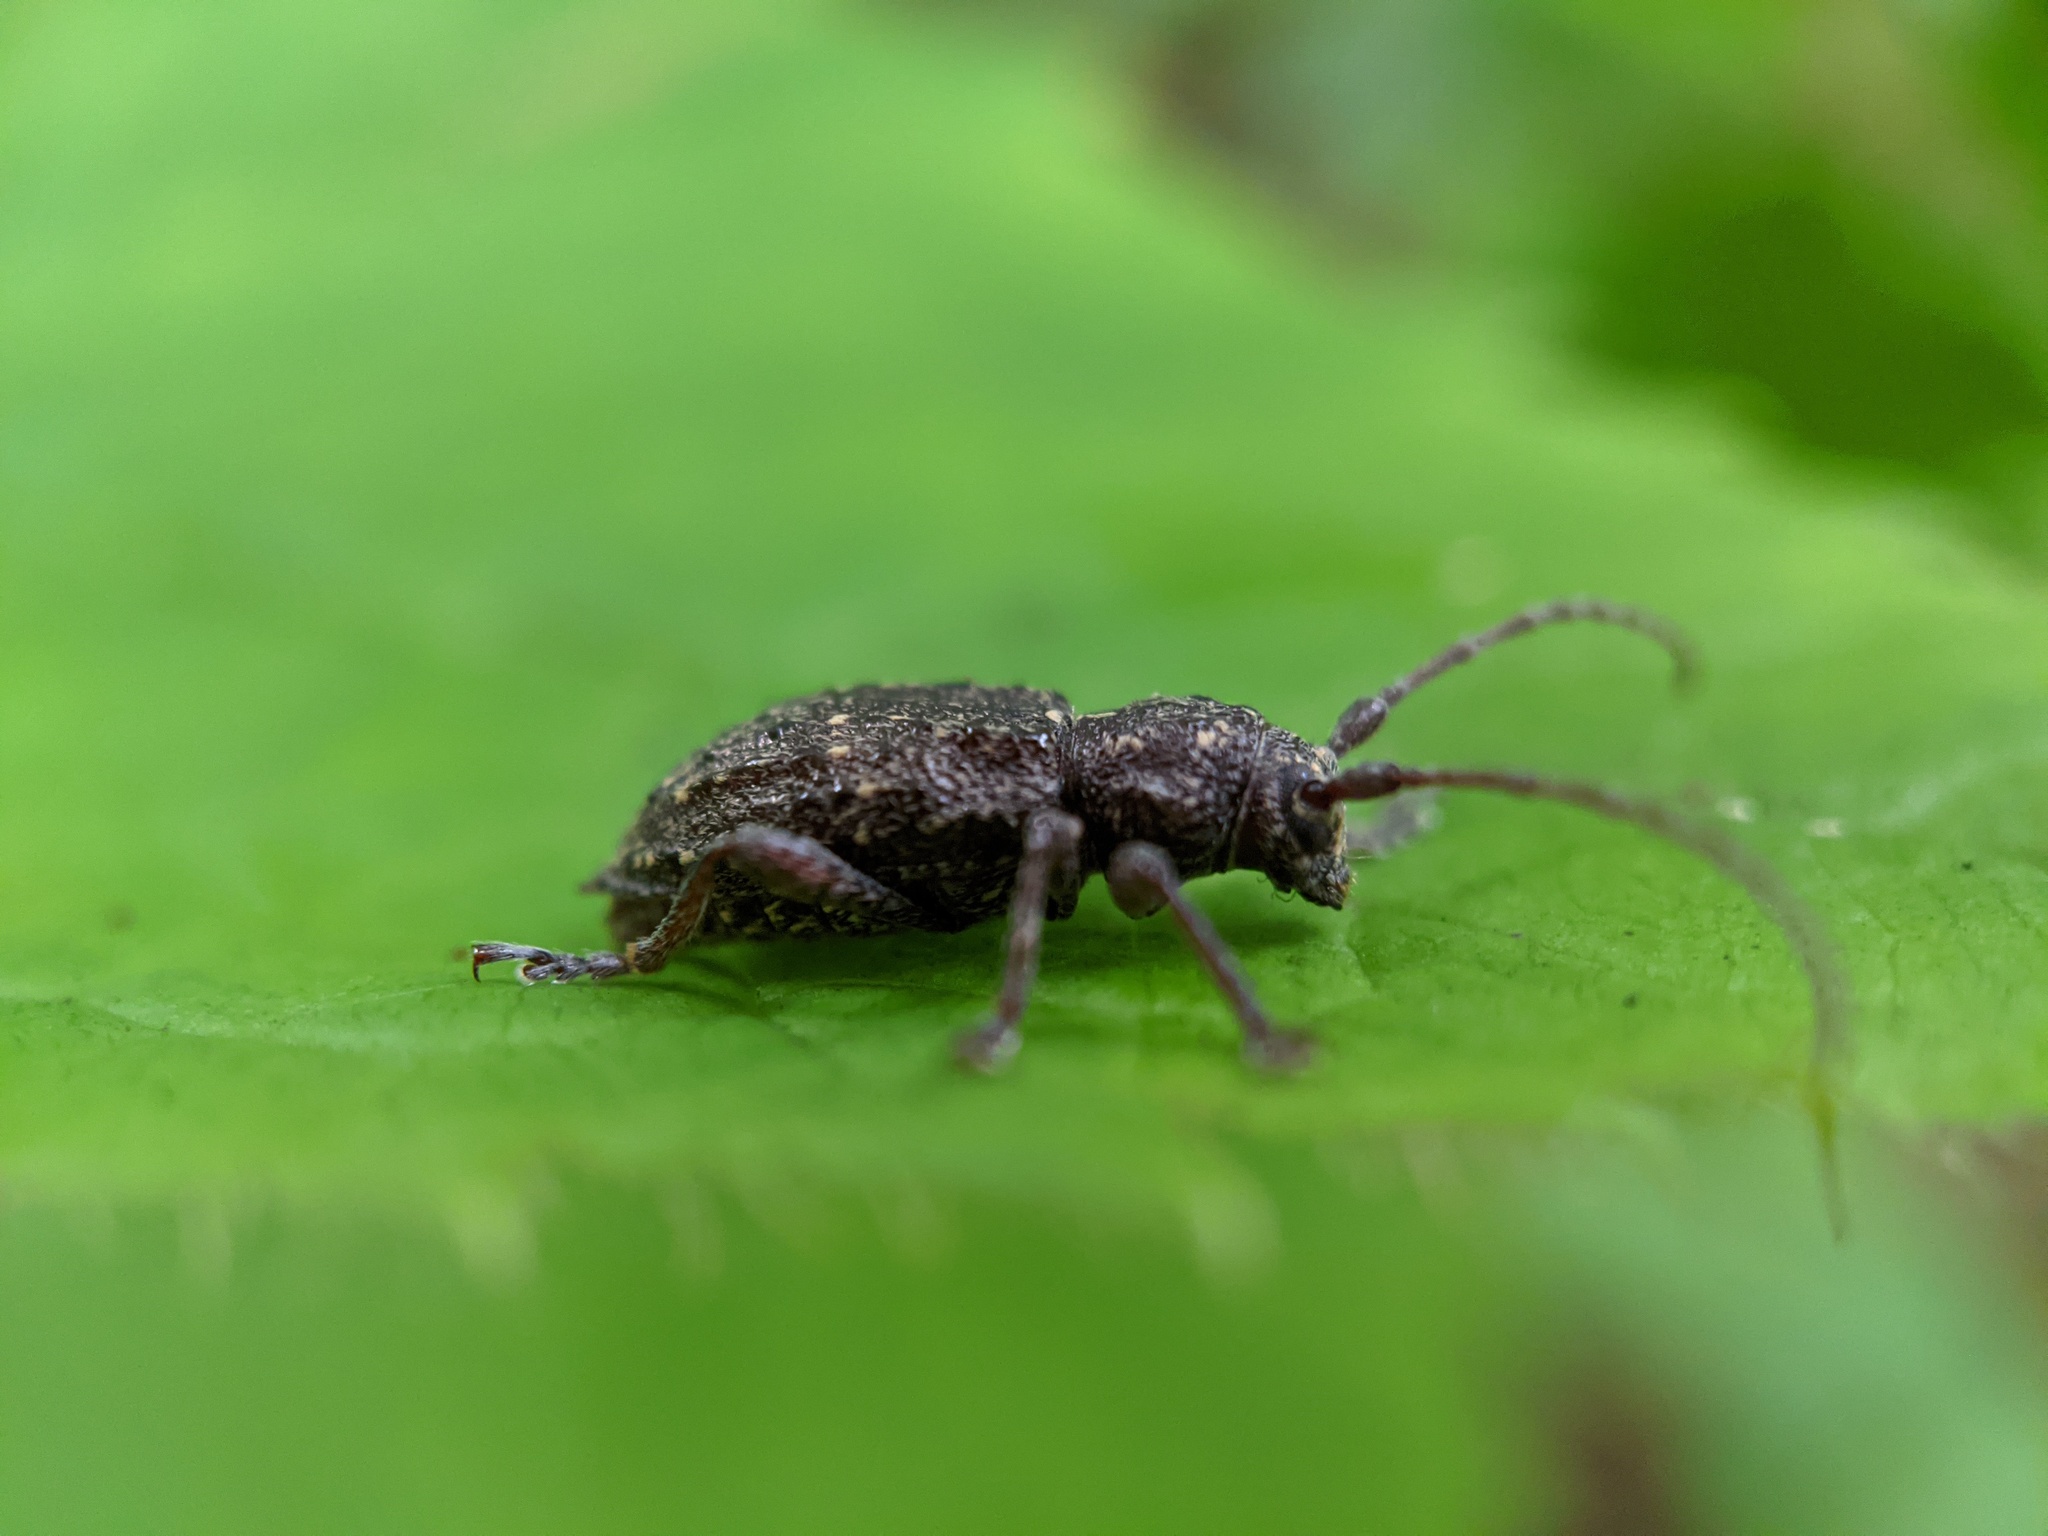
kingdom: Animalia
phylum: Arthropoda
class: Insecta
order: Coleoptera
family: Cerambycidae
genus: Plectrura
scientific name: Plectrura spinicauda
